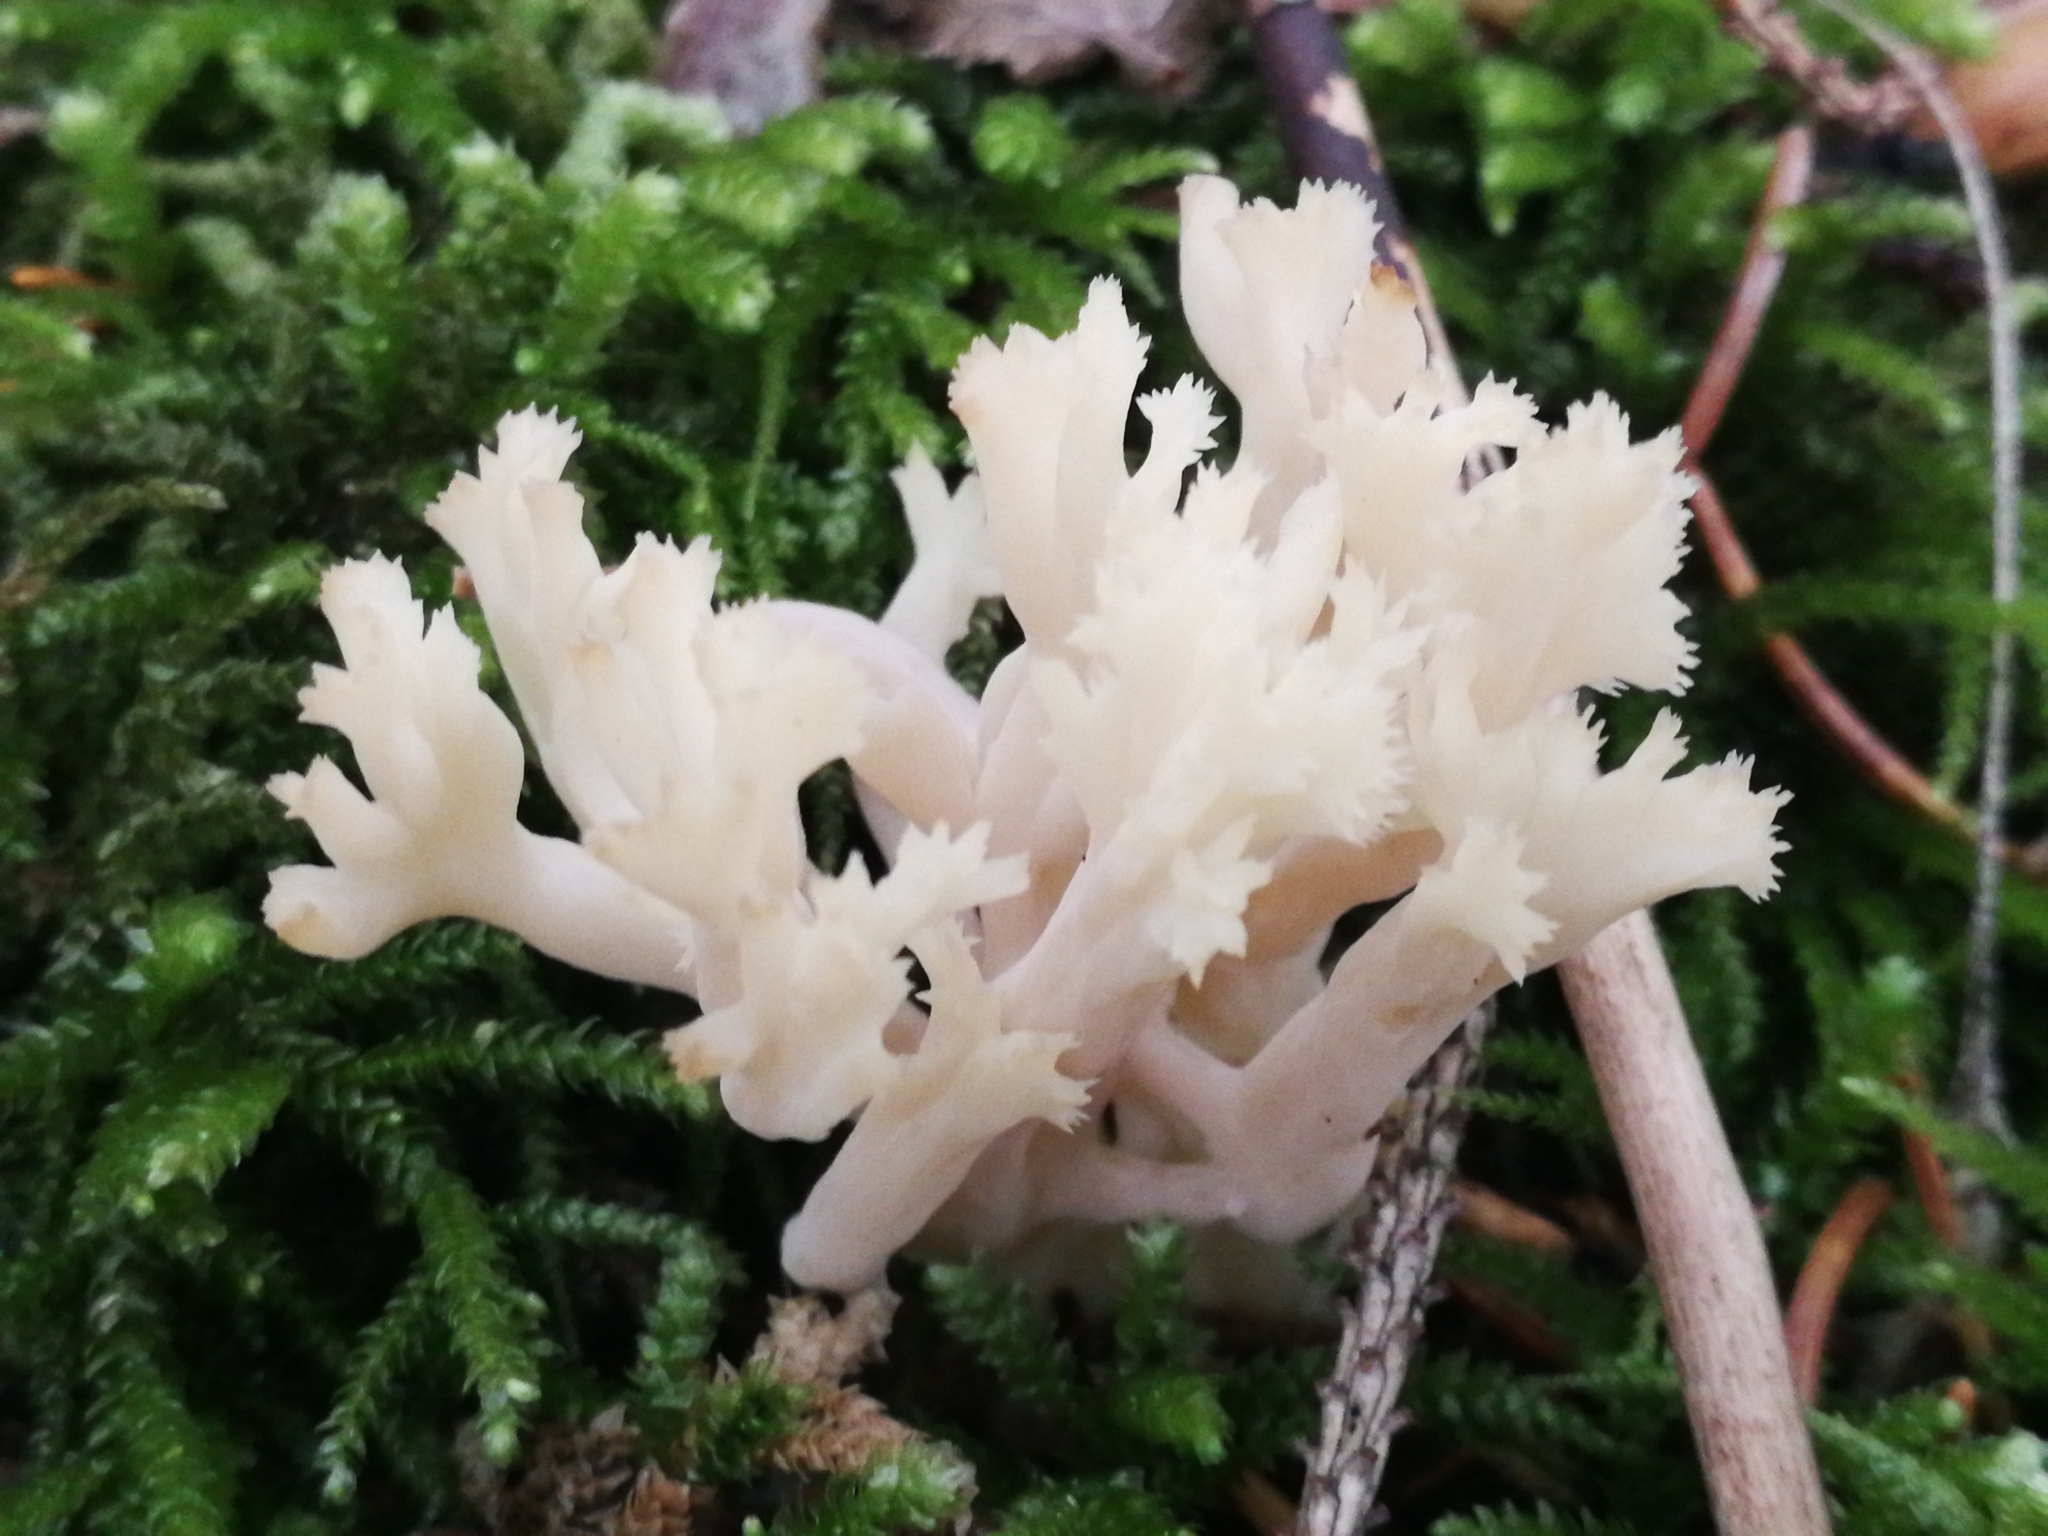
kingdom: Fungi
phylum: Basidiomycota
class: Agaricomycetes
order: Cantharellales
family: Hydnaceae
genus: Clavulina
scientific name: Clavulina coralloides
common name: Crested coral
